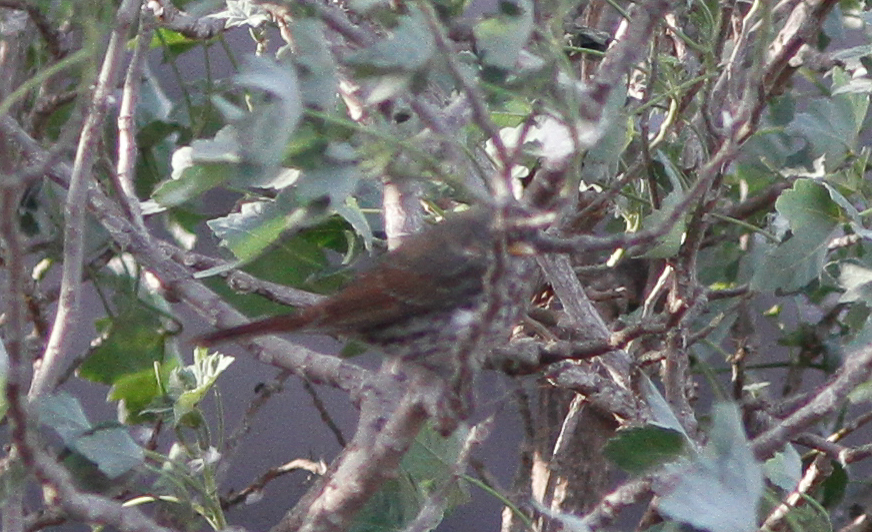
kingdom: Animalia
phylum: Chordata
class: Aves
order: Passeriformes
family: Passerellidae
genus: Passerella
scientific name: Passerella iliaca
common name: Fox sparrow
